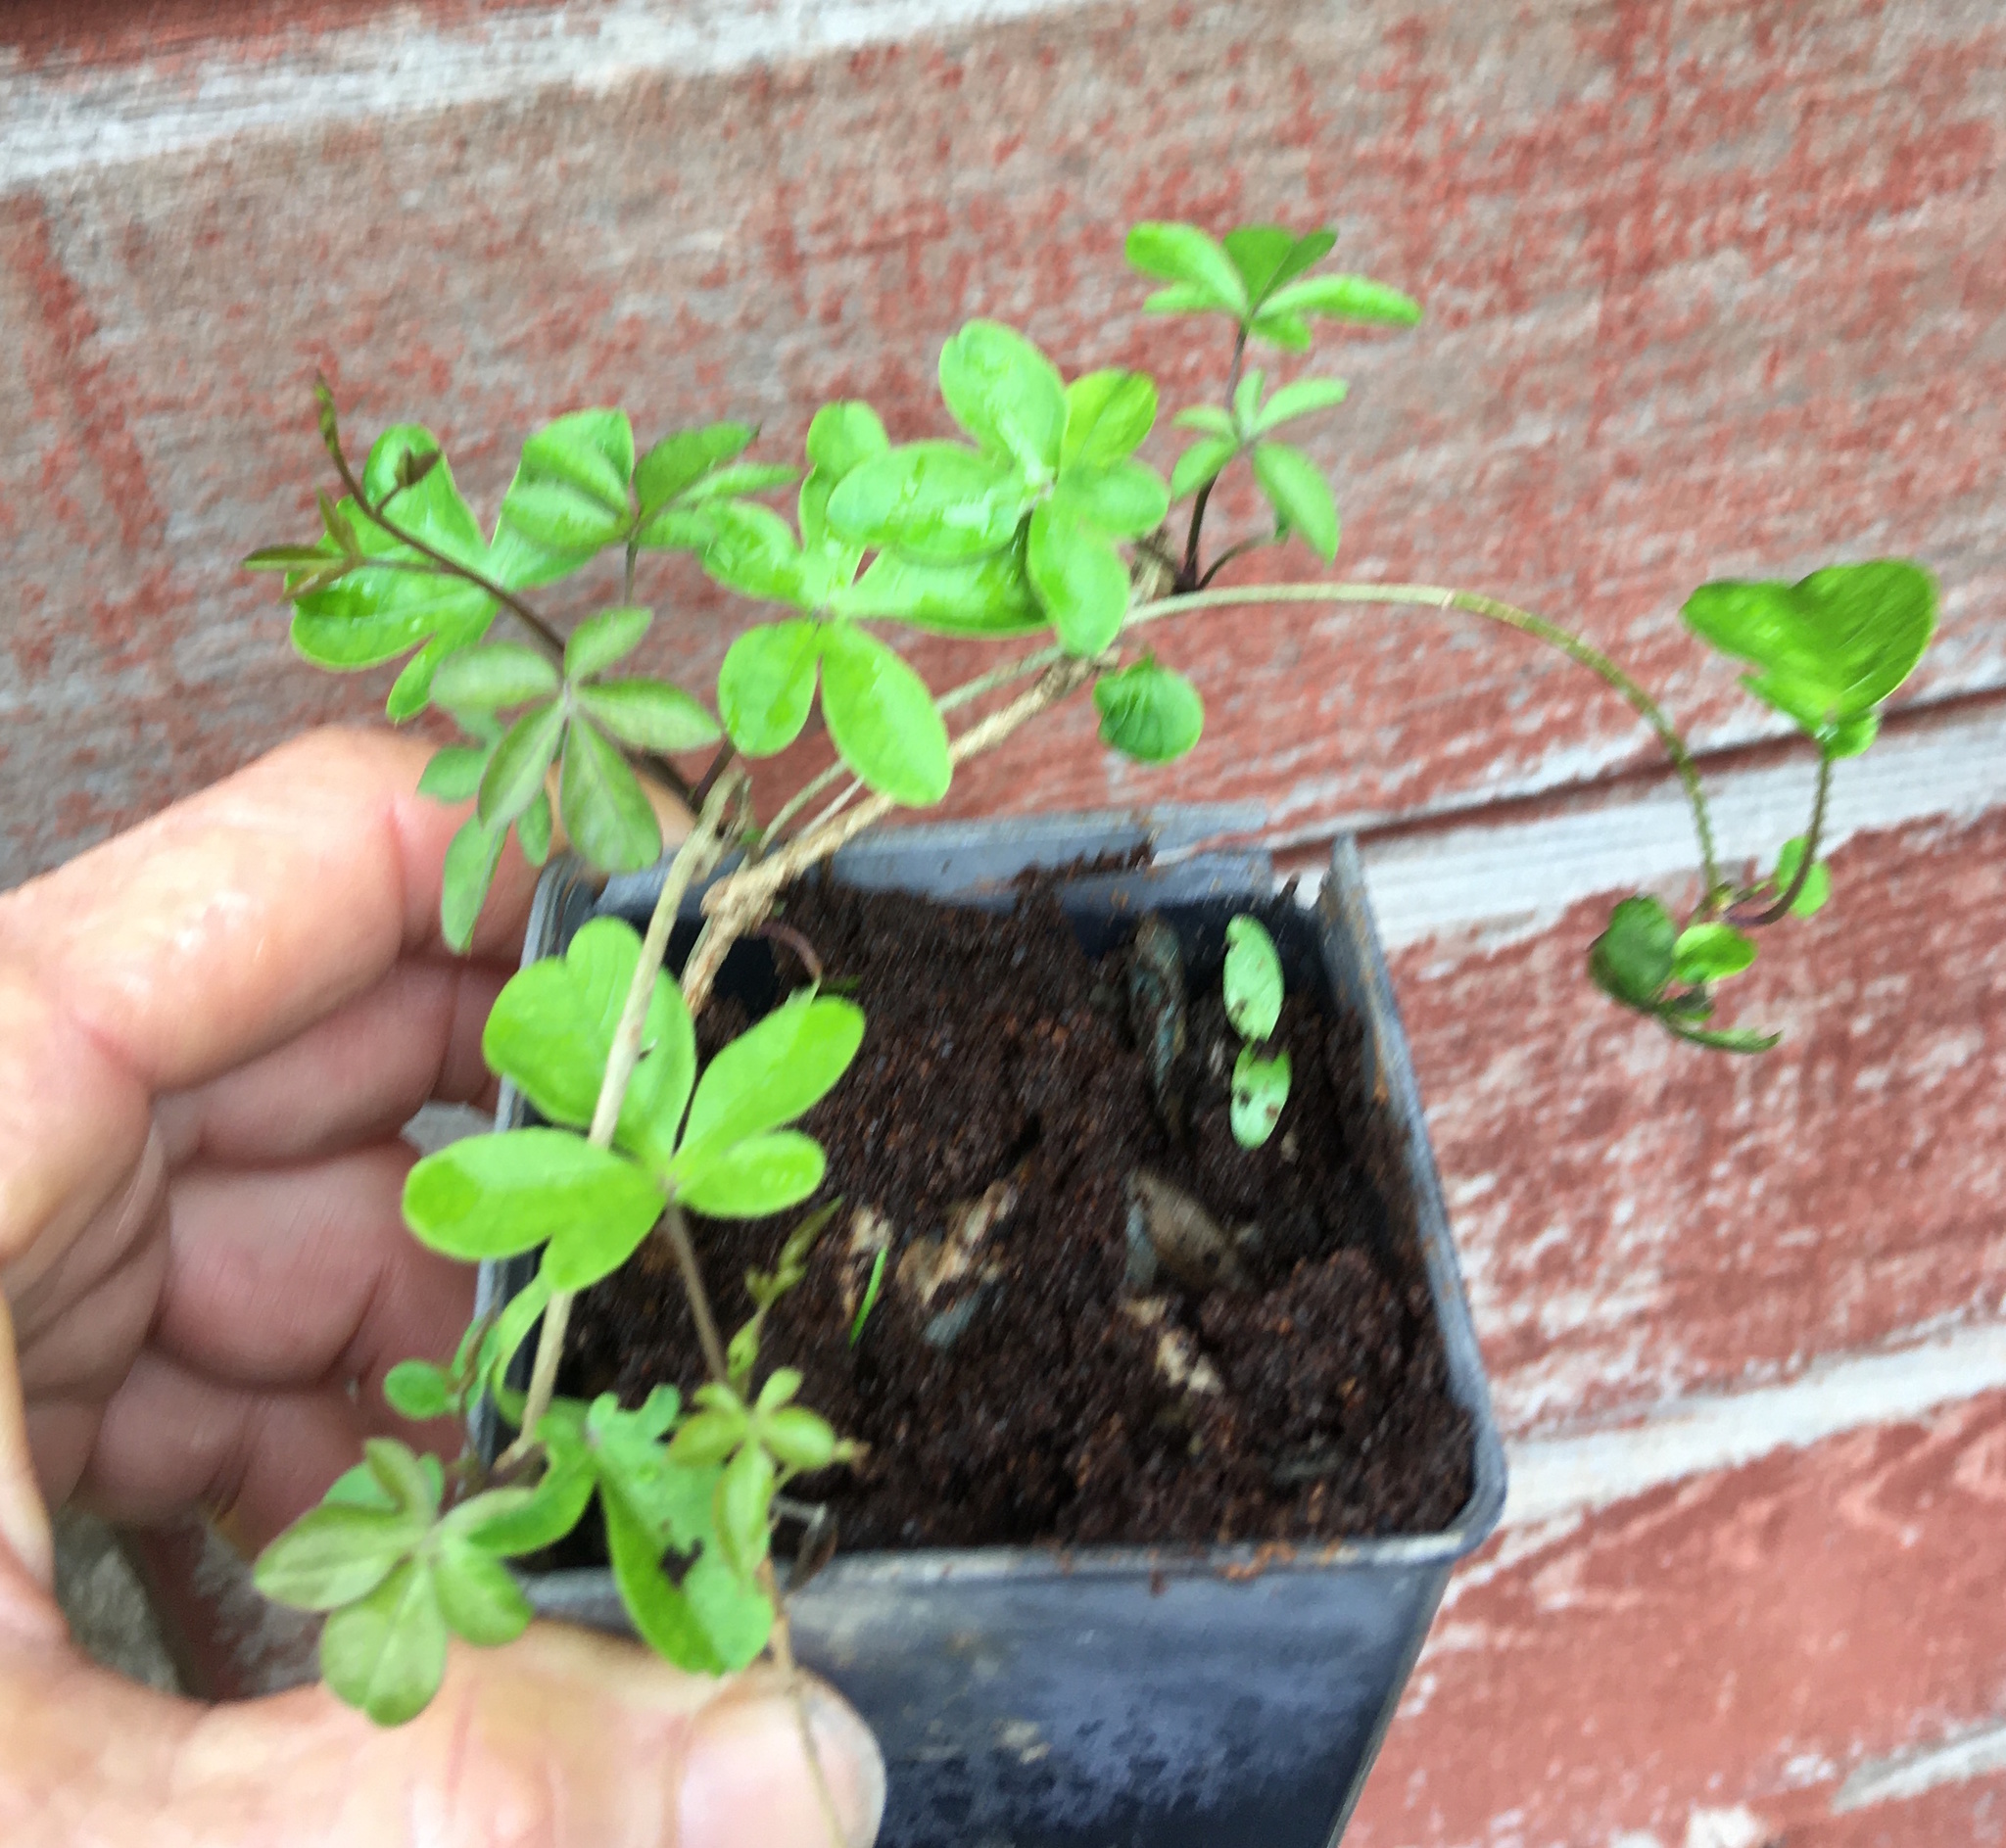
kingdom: Plantae
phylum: Tracheophyta
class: Magnoliopsida
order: Solanales
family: Convolvulaceae
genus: Ipomoea
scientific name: Ipomoea cairica
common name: Mile a minute vine
